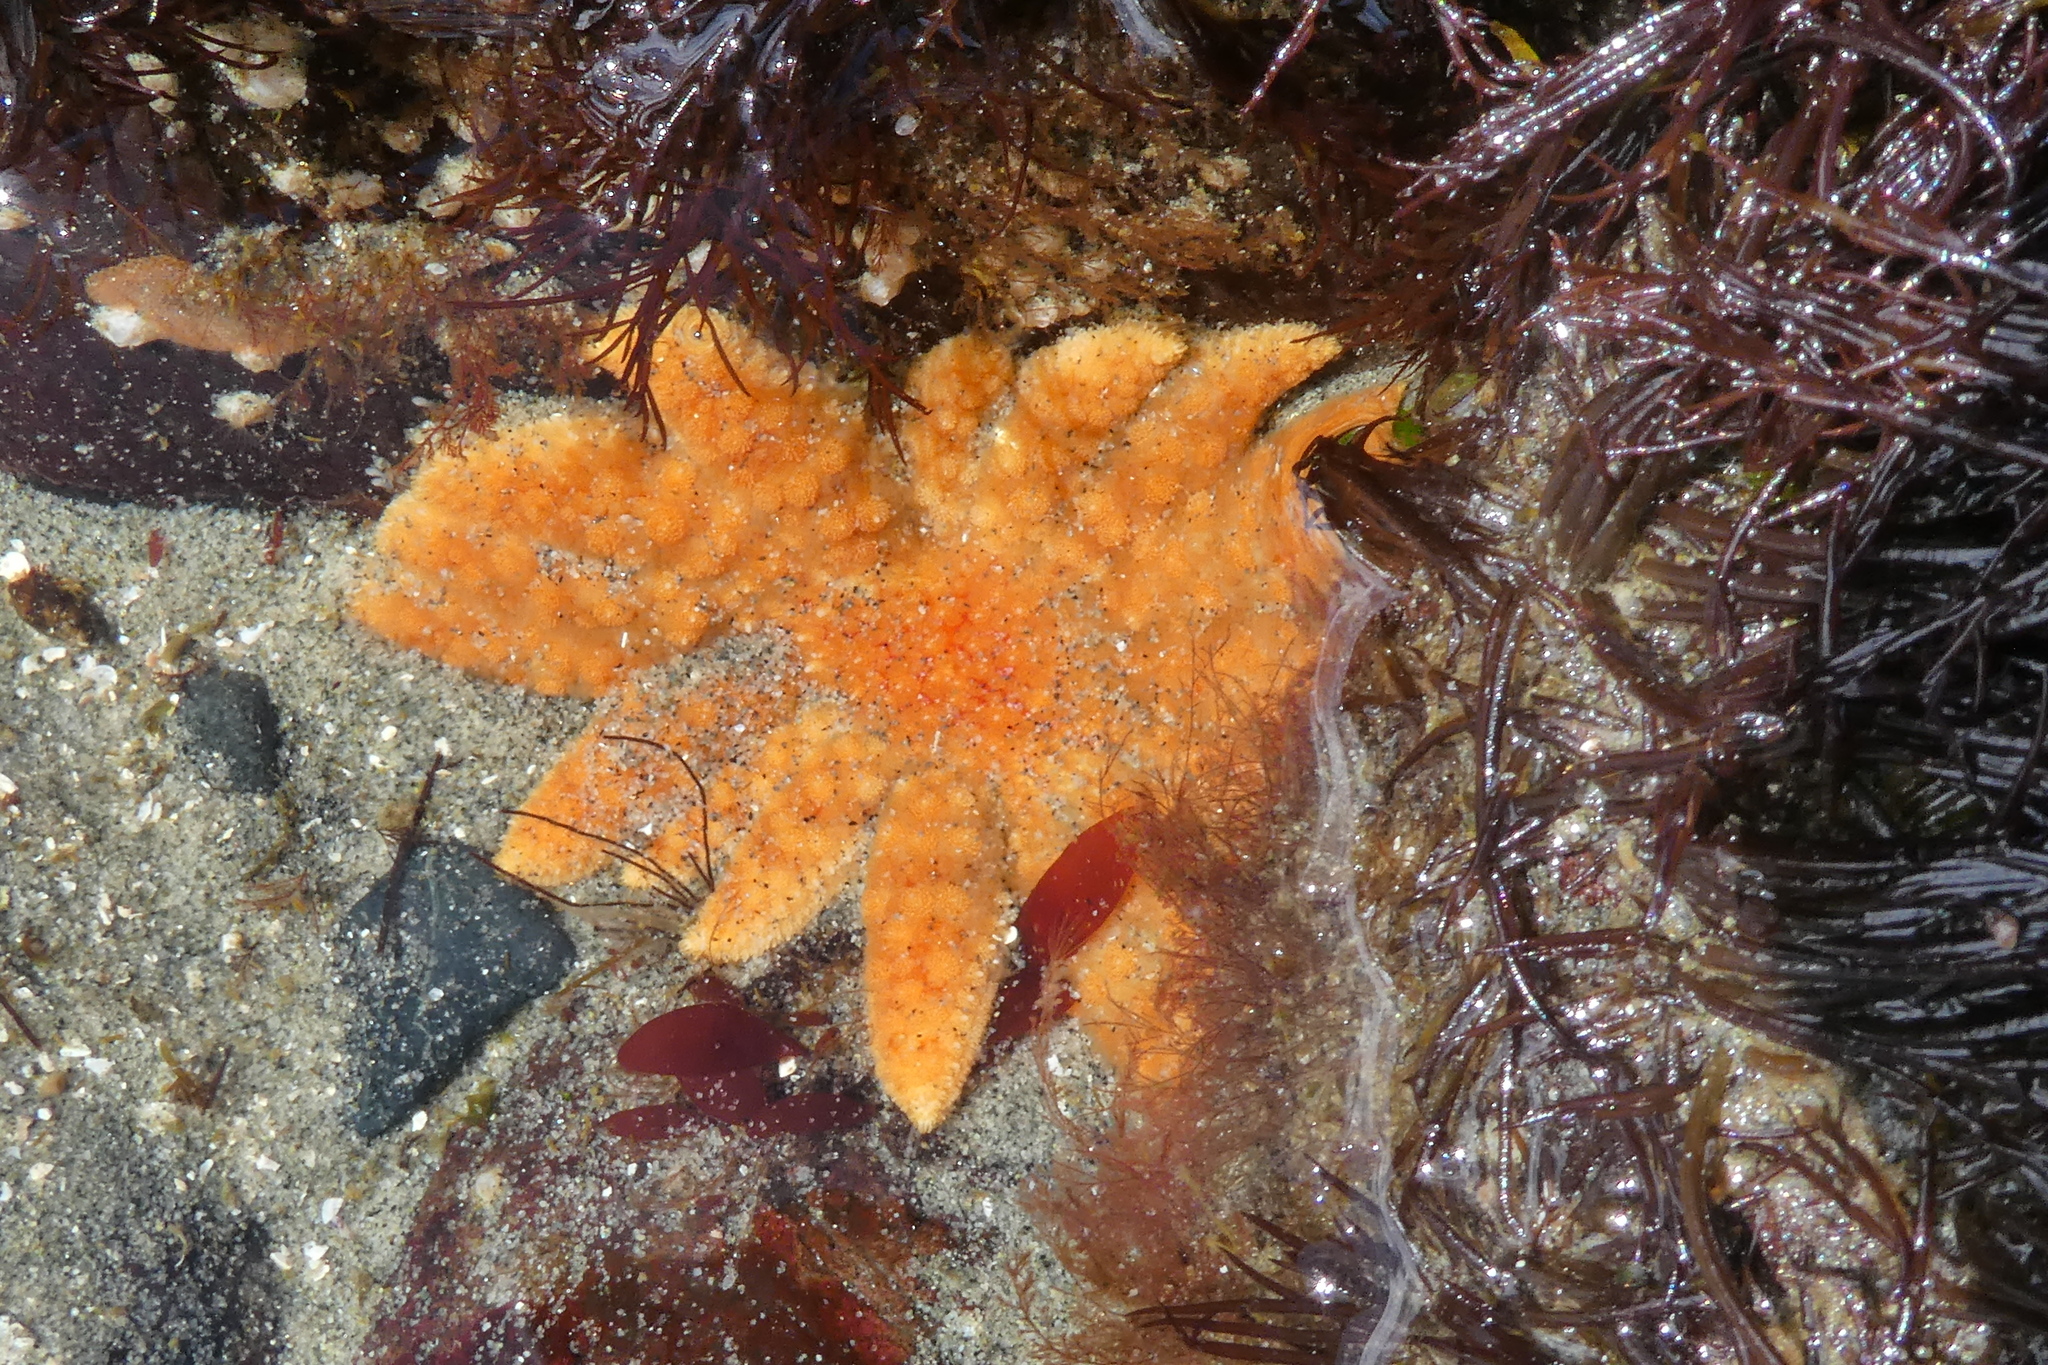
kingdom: Animalia
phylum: Echinodermata
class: Asteroidea
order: Forcipulatida
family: Asteriidae
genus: Pycnopodia
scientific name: Pycnopodia helianthoides
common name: Rag mop
